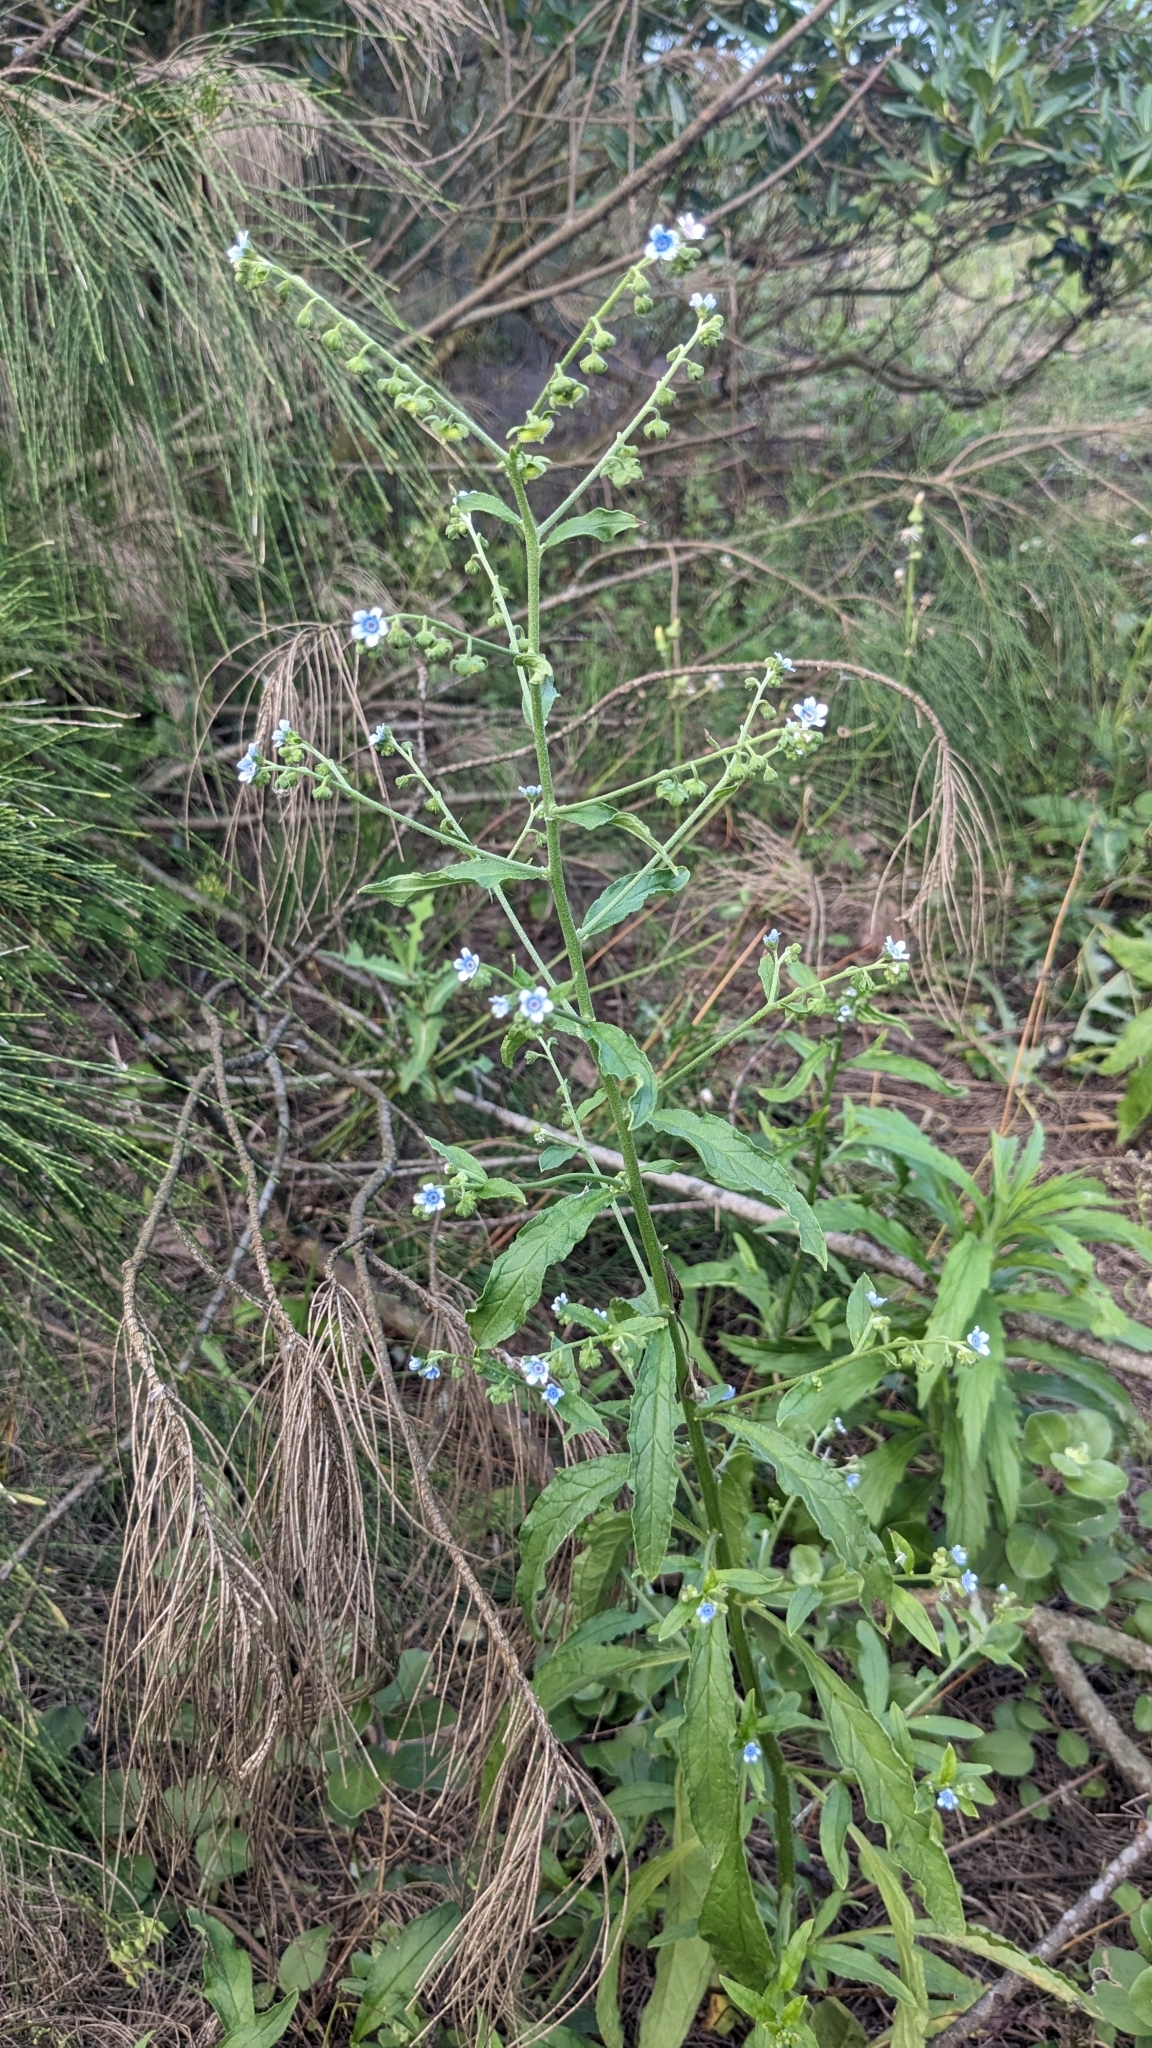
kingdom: Plantae
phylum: Tracheophyta
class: Magnoliopsida
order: Boraginales
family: Boraginaceae
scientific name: Boraginaceae
